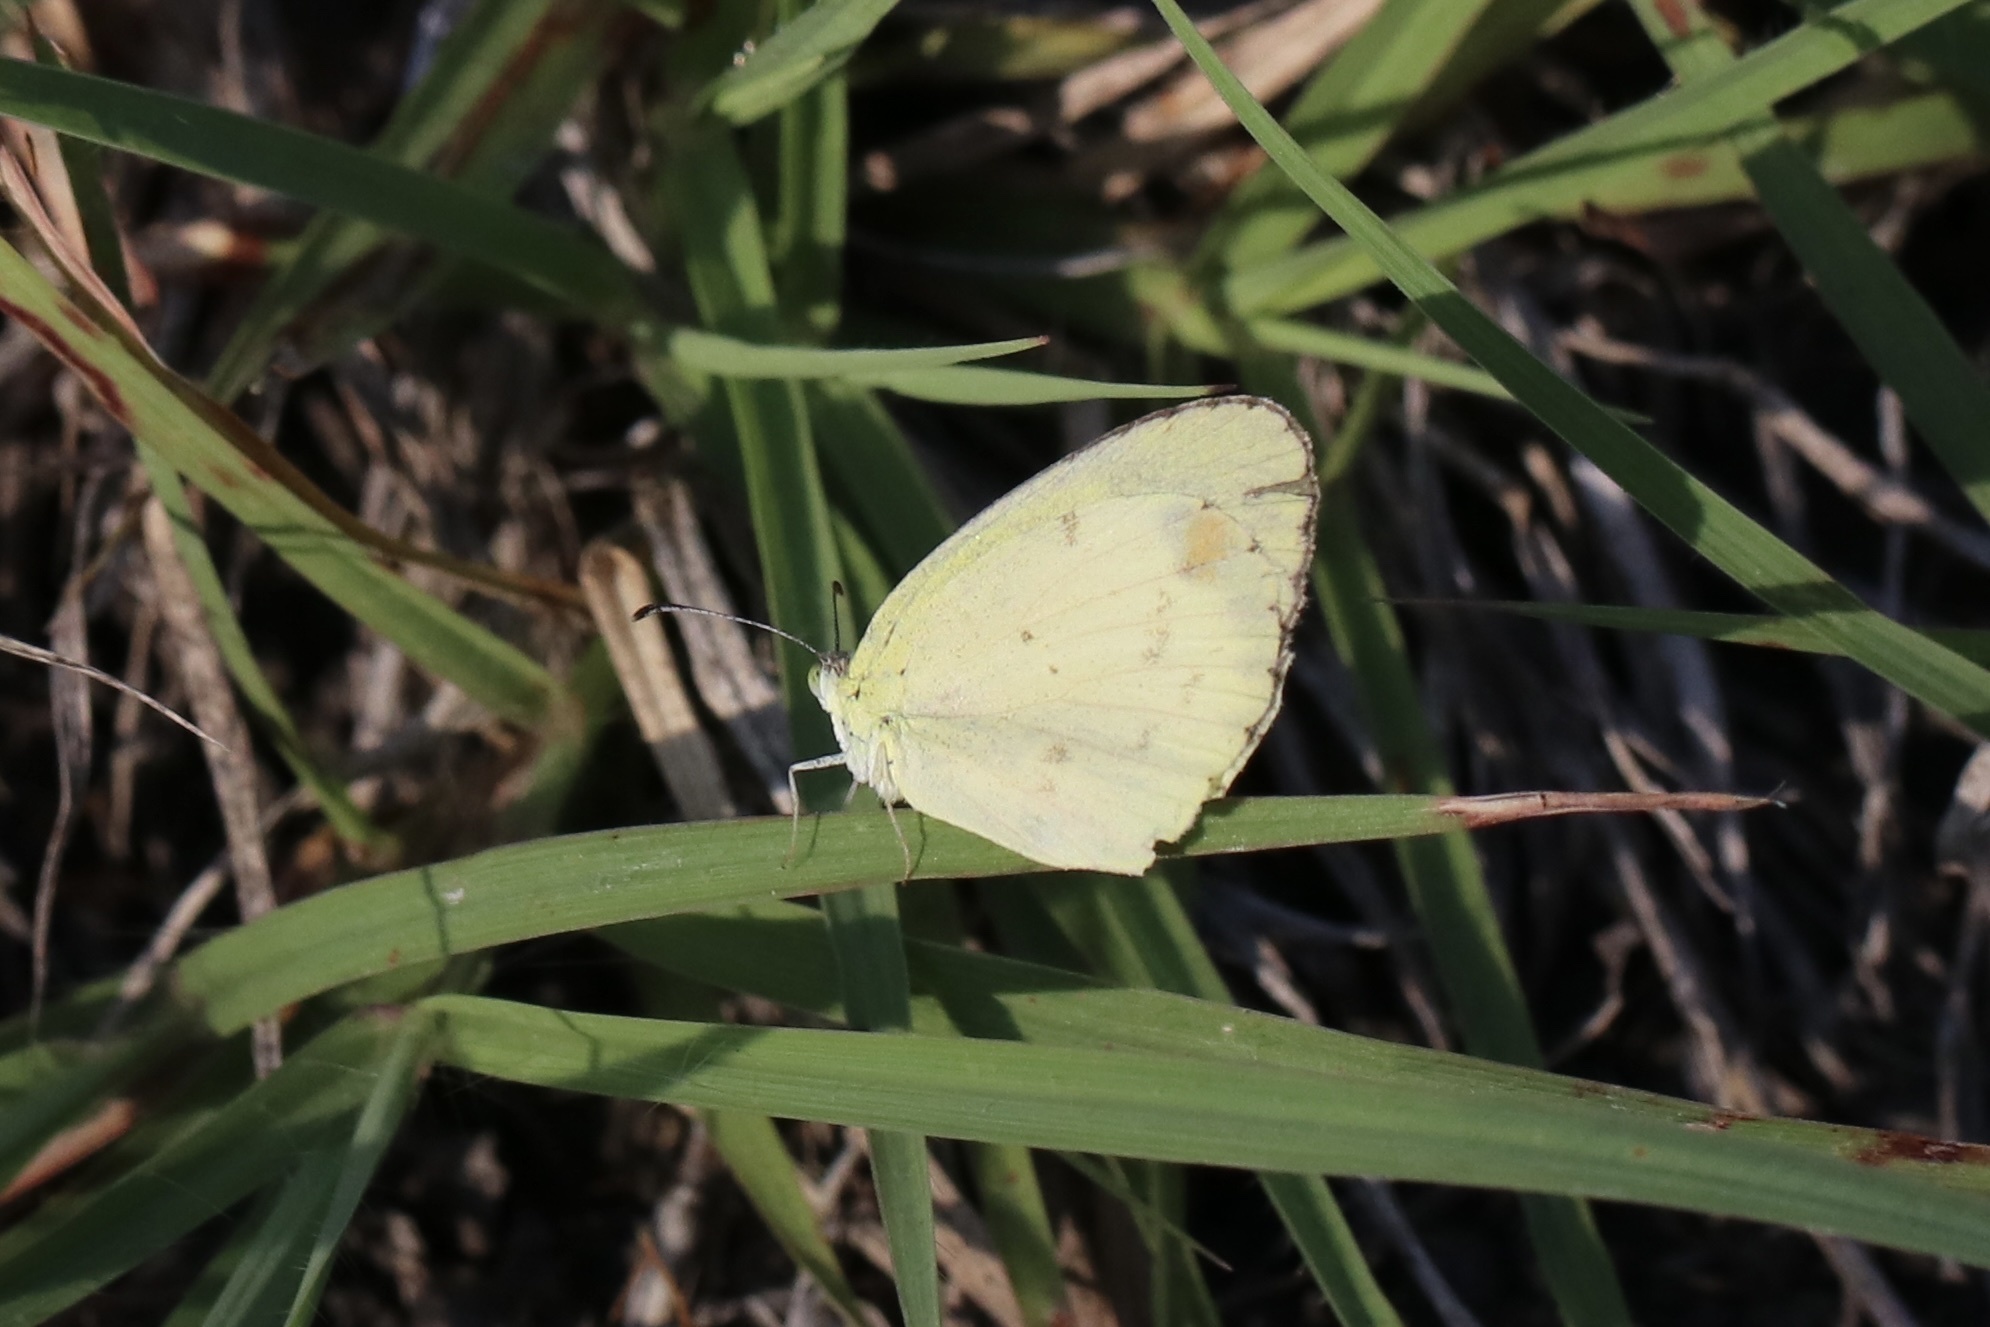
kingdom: Animalia
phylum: Arthropoda
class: Insecta
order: Lepidoptera
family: Pieridae
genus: Pyrisitia
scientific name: Pyrisitia lisa
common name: Little yellow
